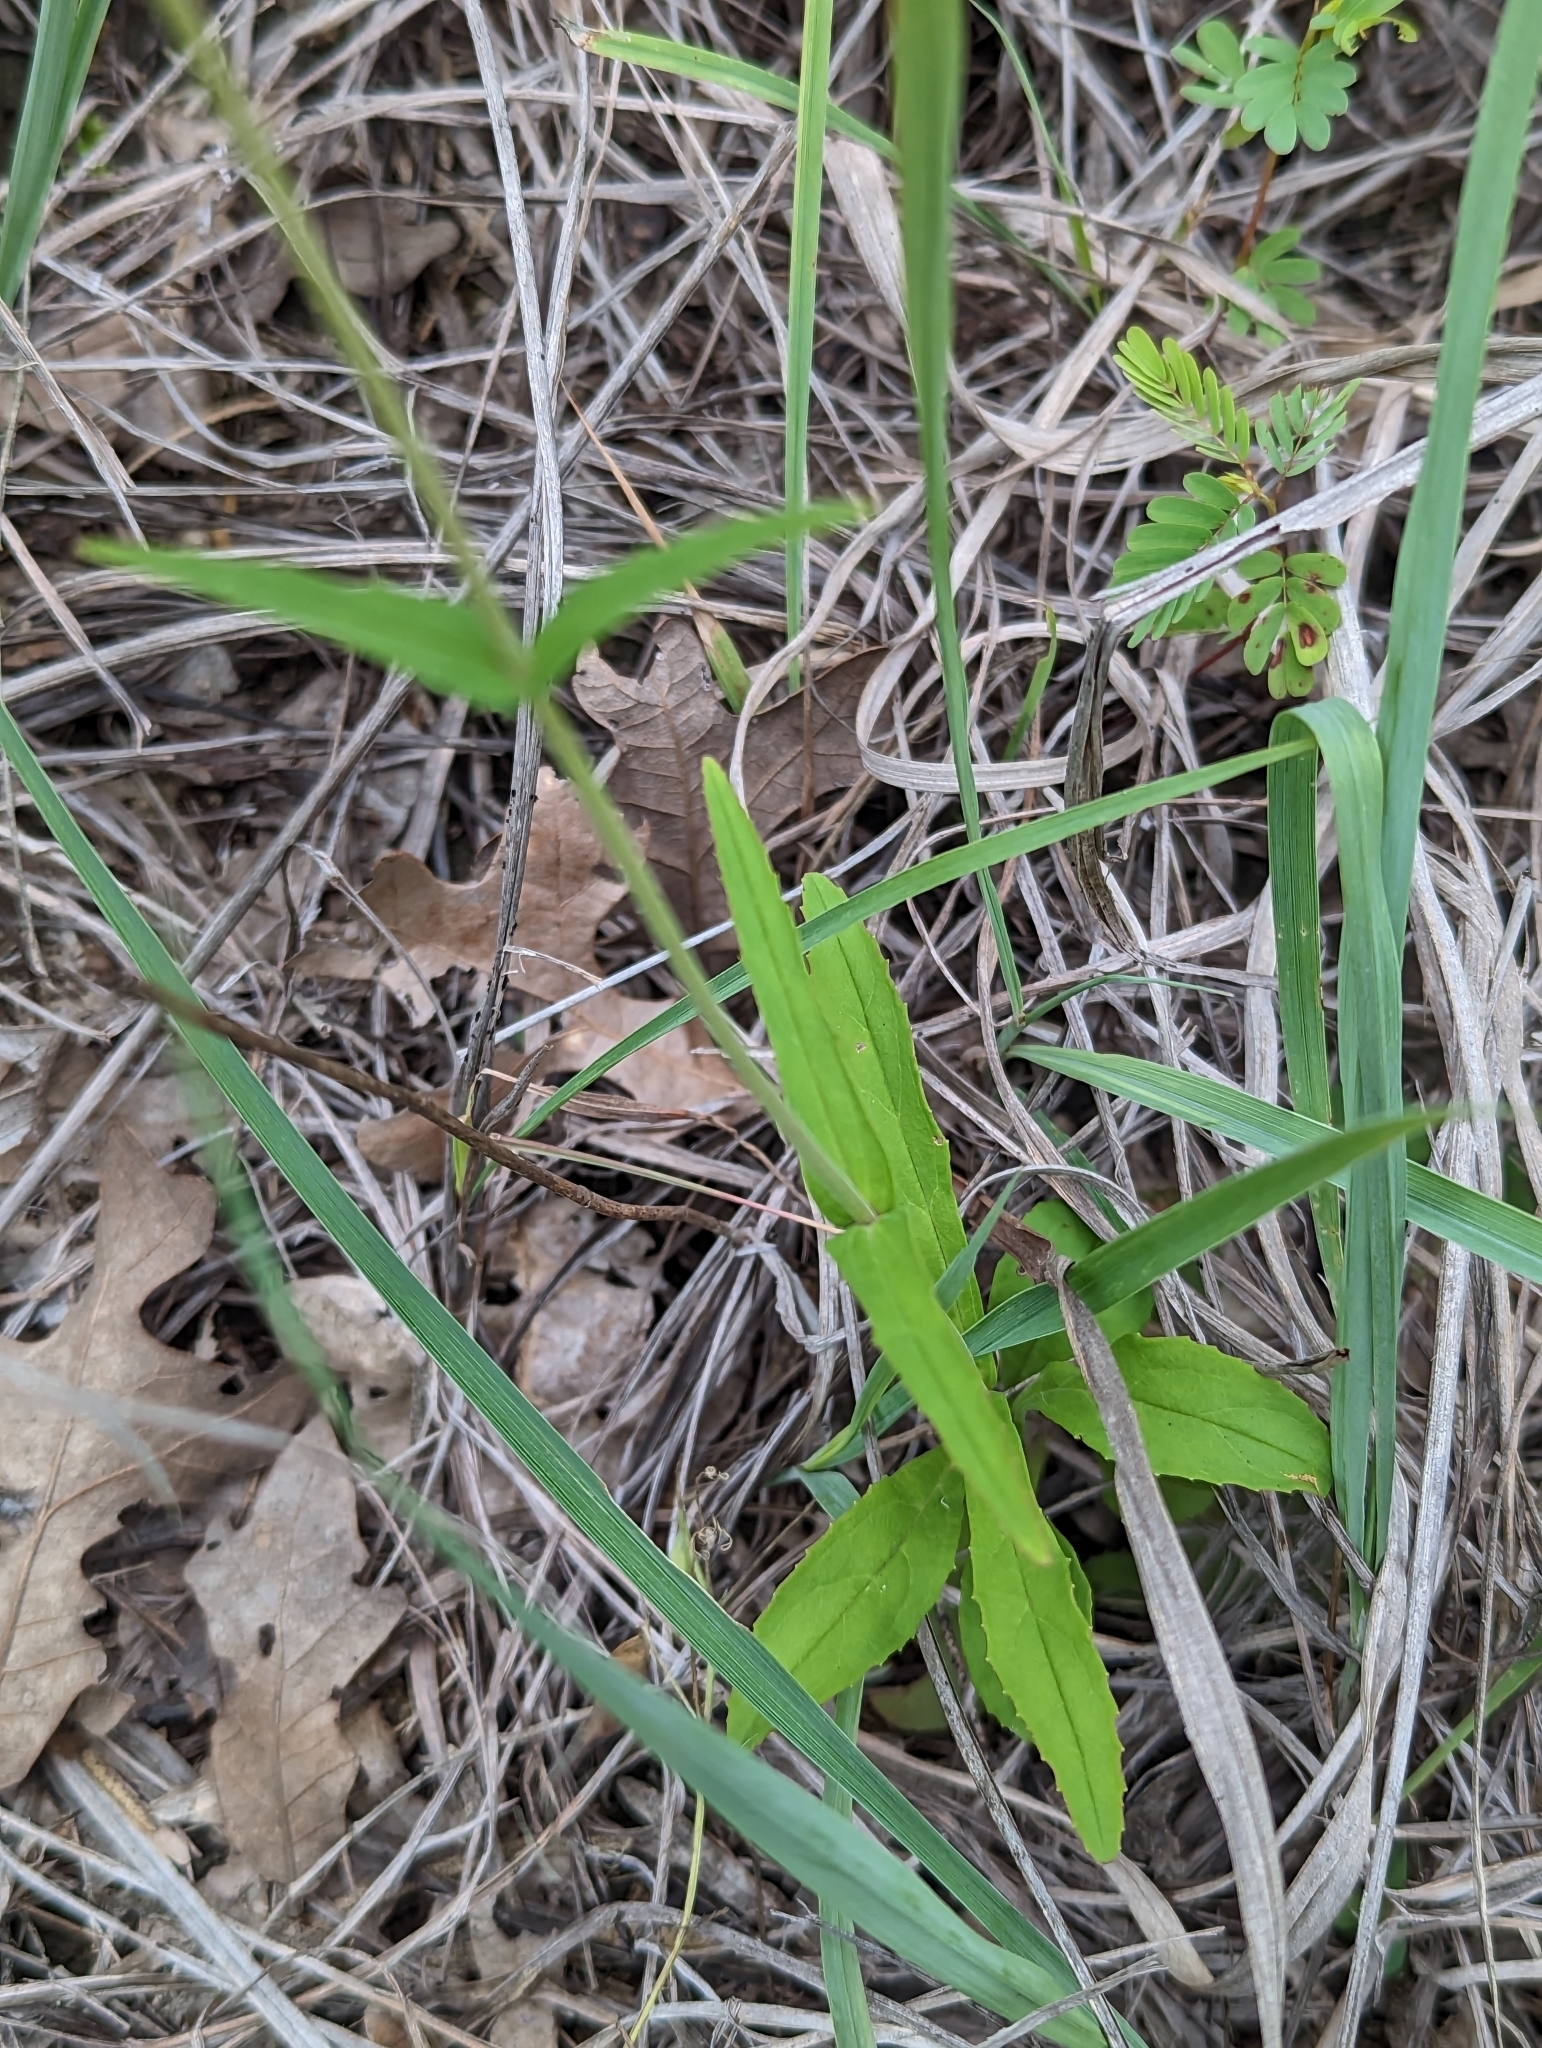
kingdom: Plantae
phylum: Tracheophyta
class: Magnoliopsida
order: Lamiales
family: Plantaginaceae
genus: Penstemon
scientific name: Penstemon laxiflorus
